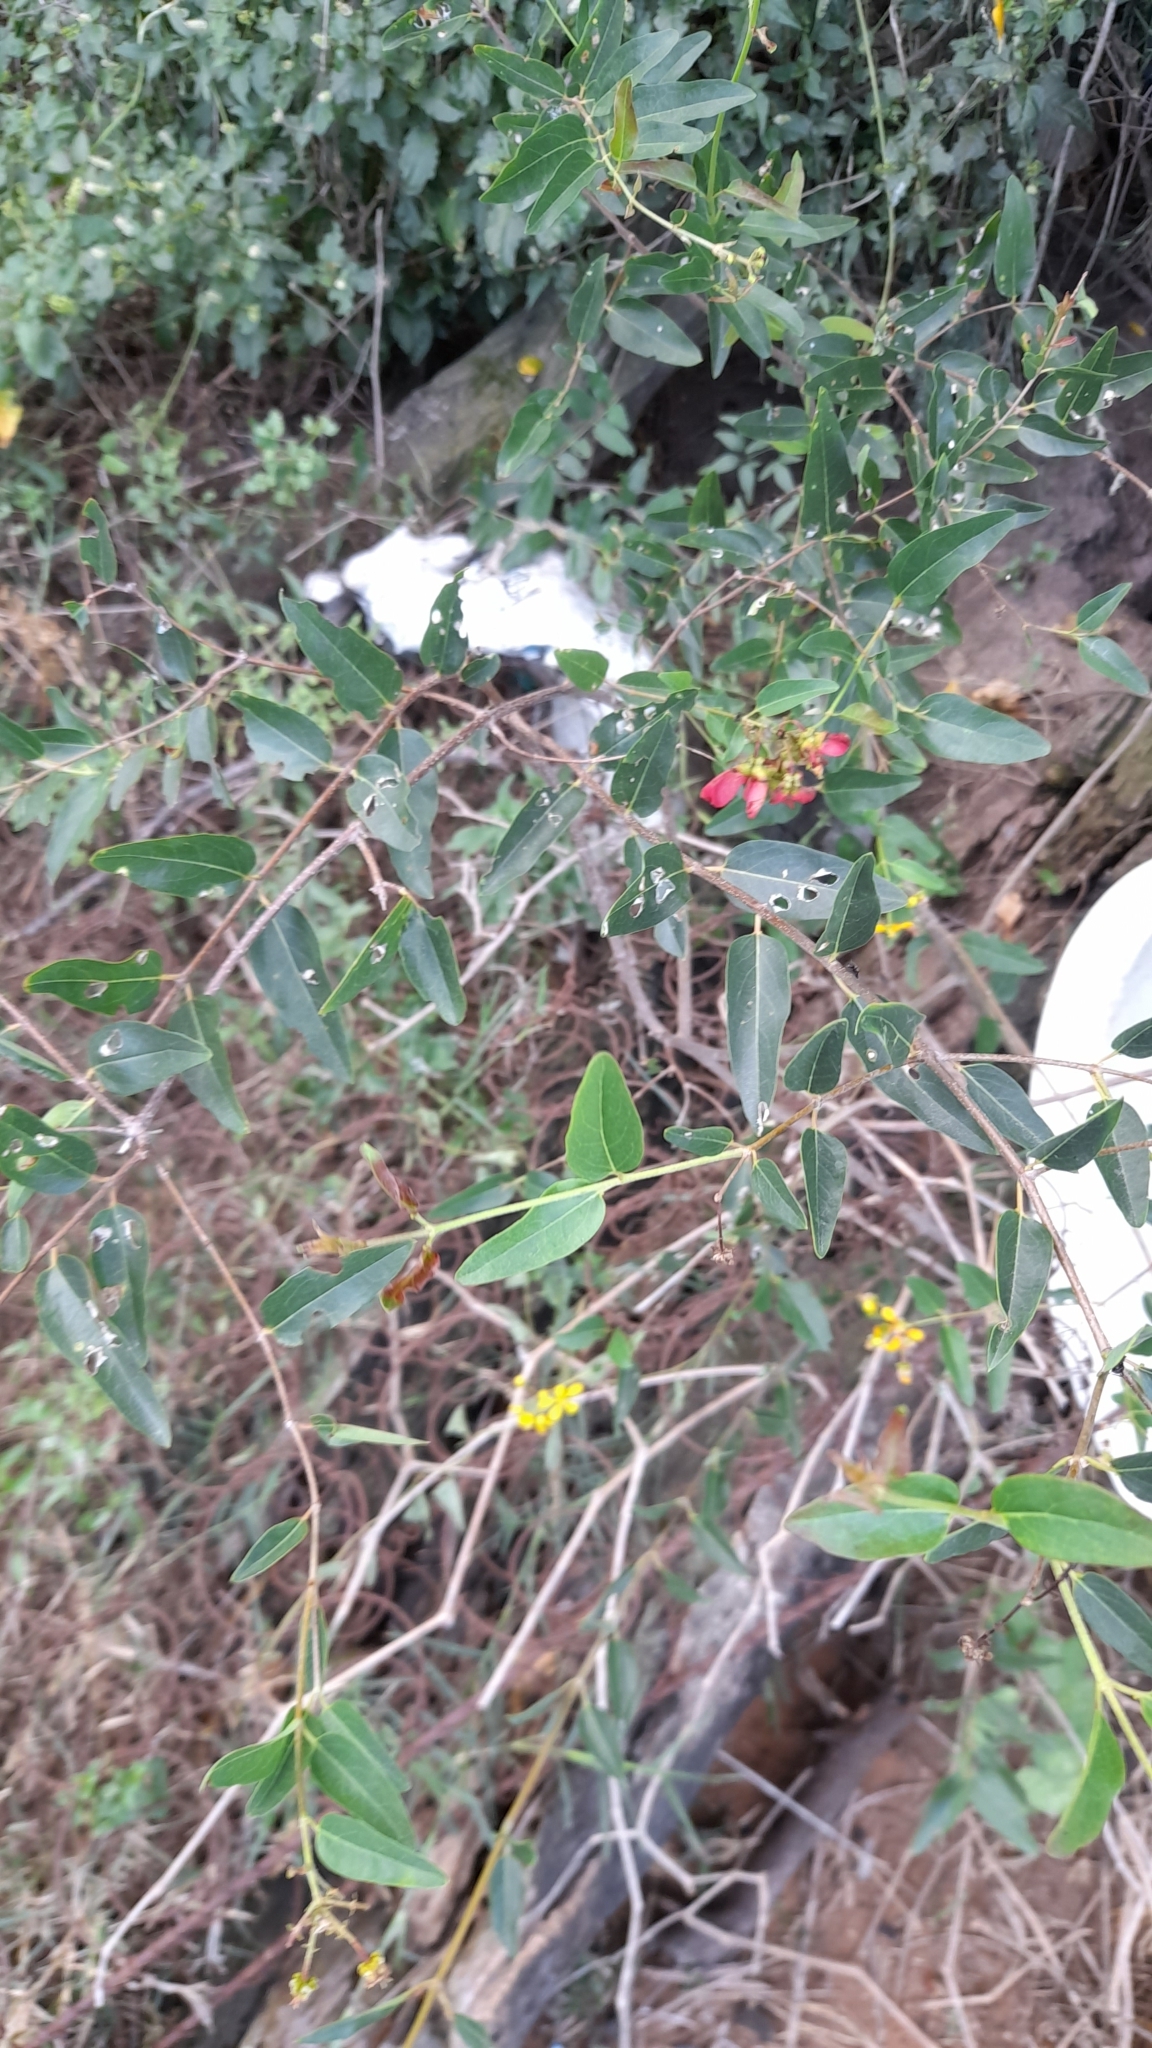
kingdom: Plantae
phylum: Tracheophyta
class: Magnoliopsida
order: Malpighiales
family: Malpighiaceae
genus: Heteropterys
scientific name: Heteropterys glabra
